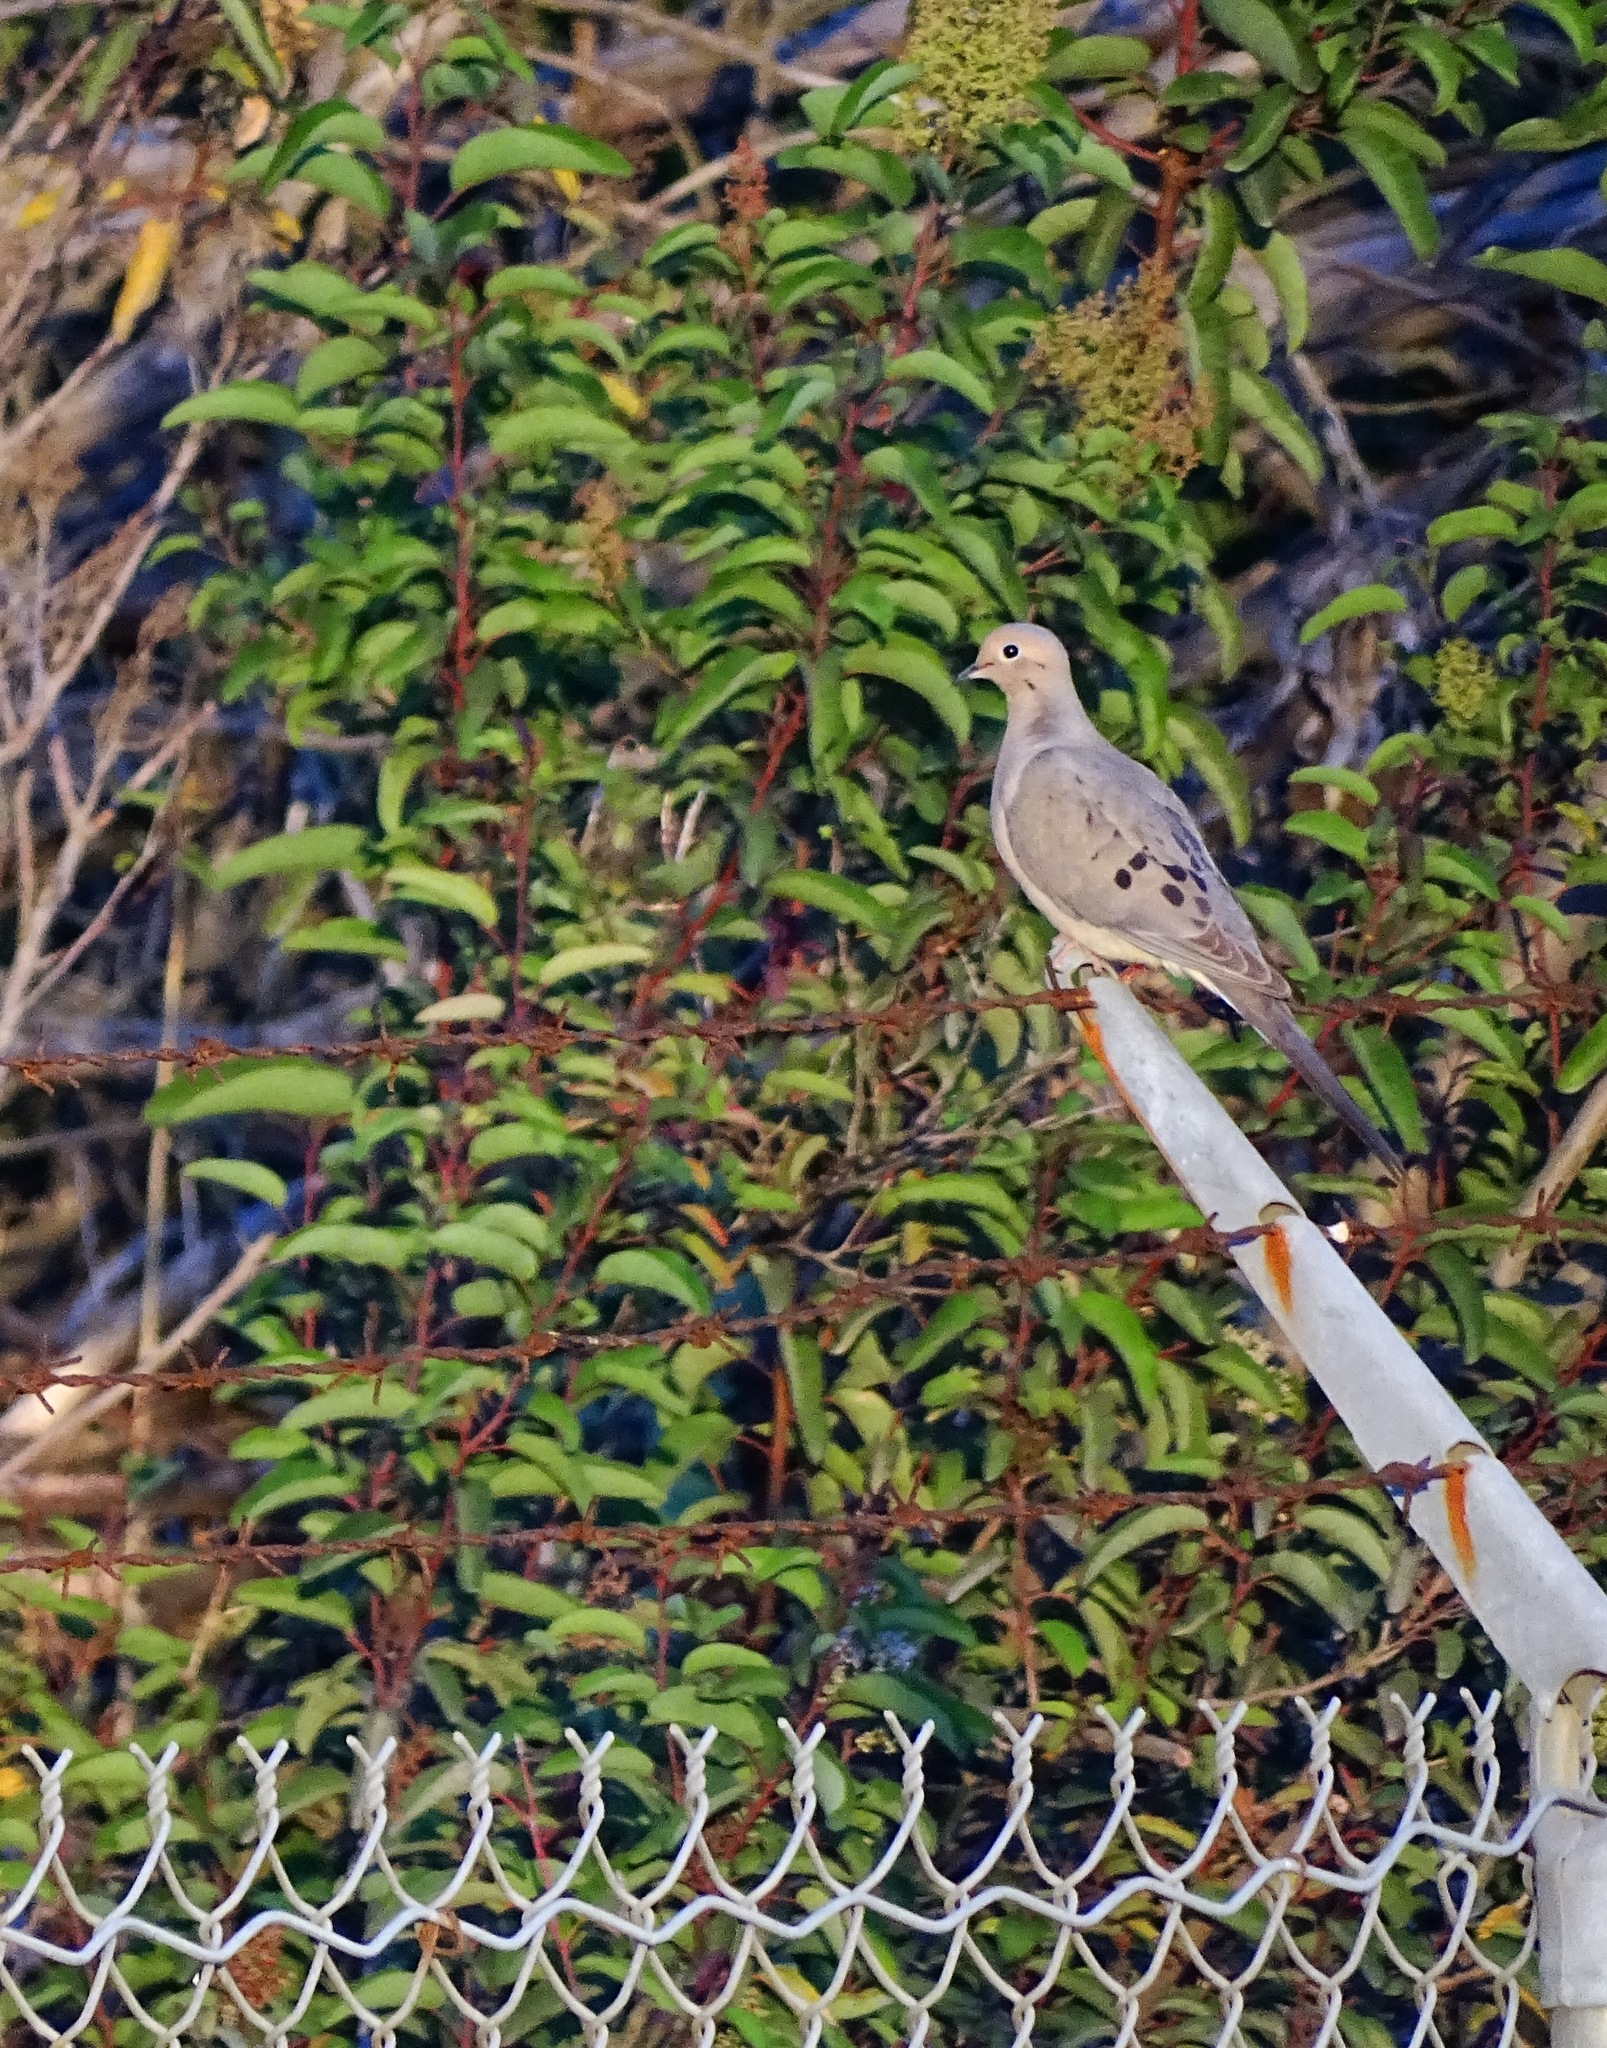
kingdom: Animalia
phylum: Chordata
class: Aves
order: Columbiformes
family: Columbidae
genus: Zenaida
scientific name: Zenaida macroura
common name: Mourning dove
